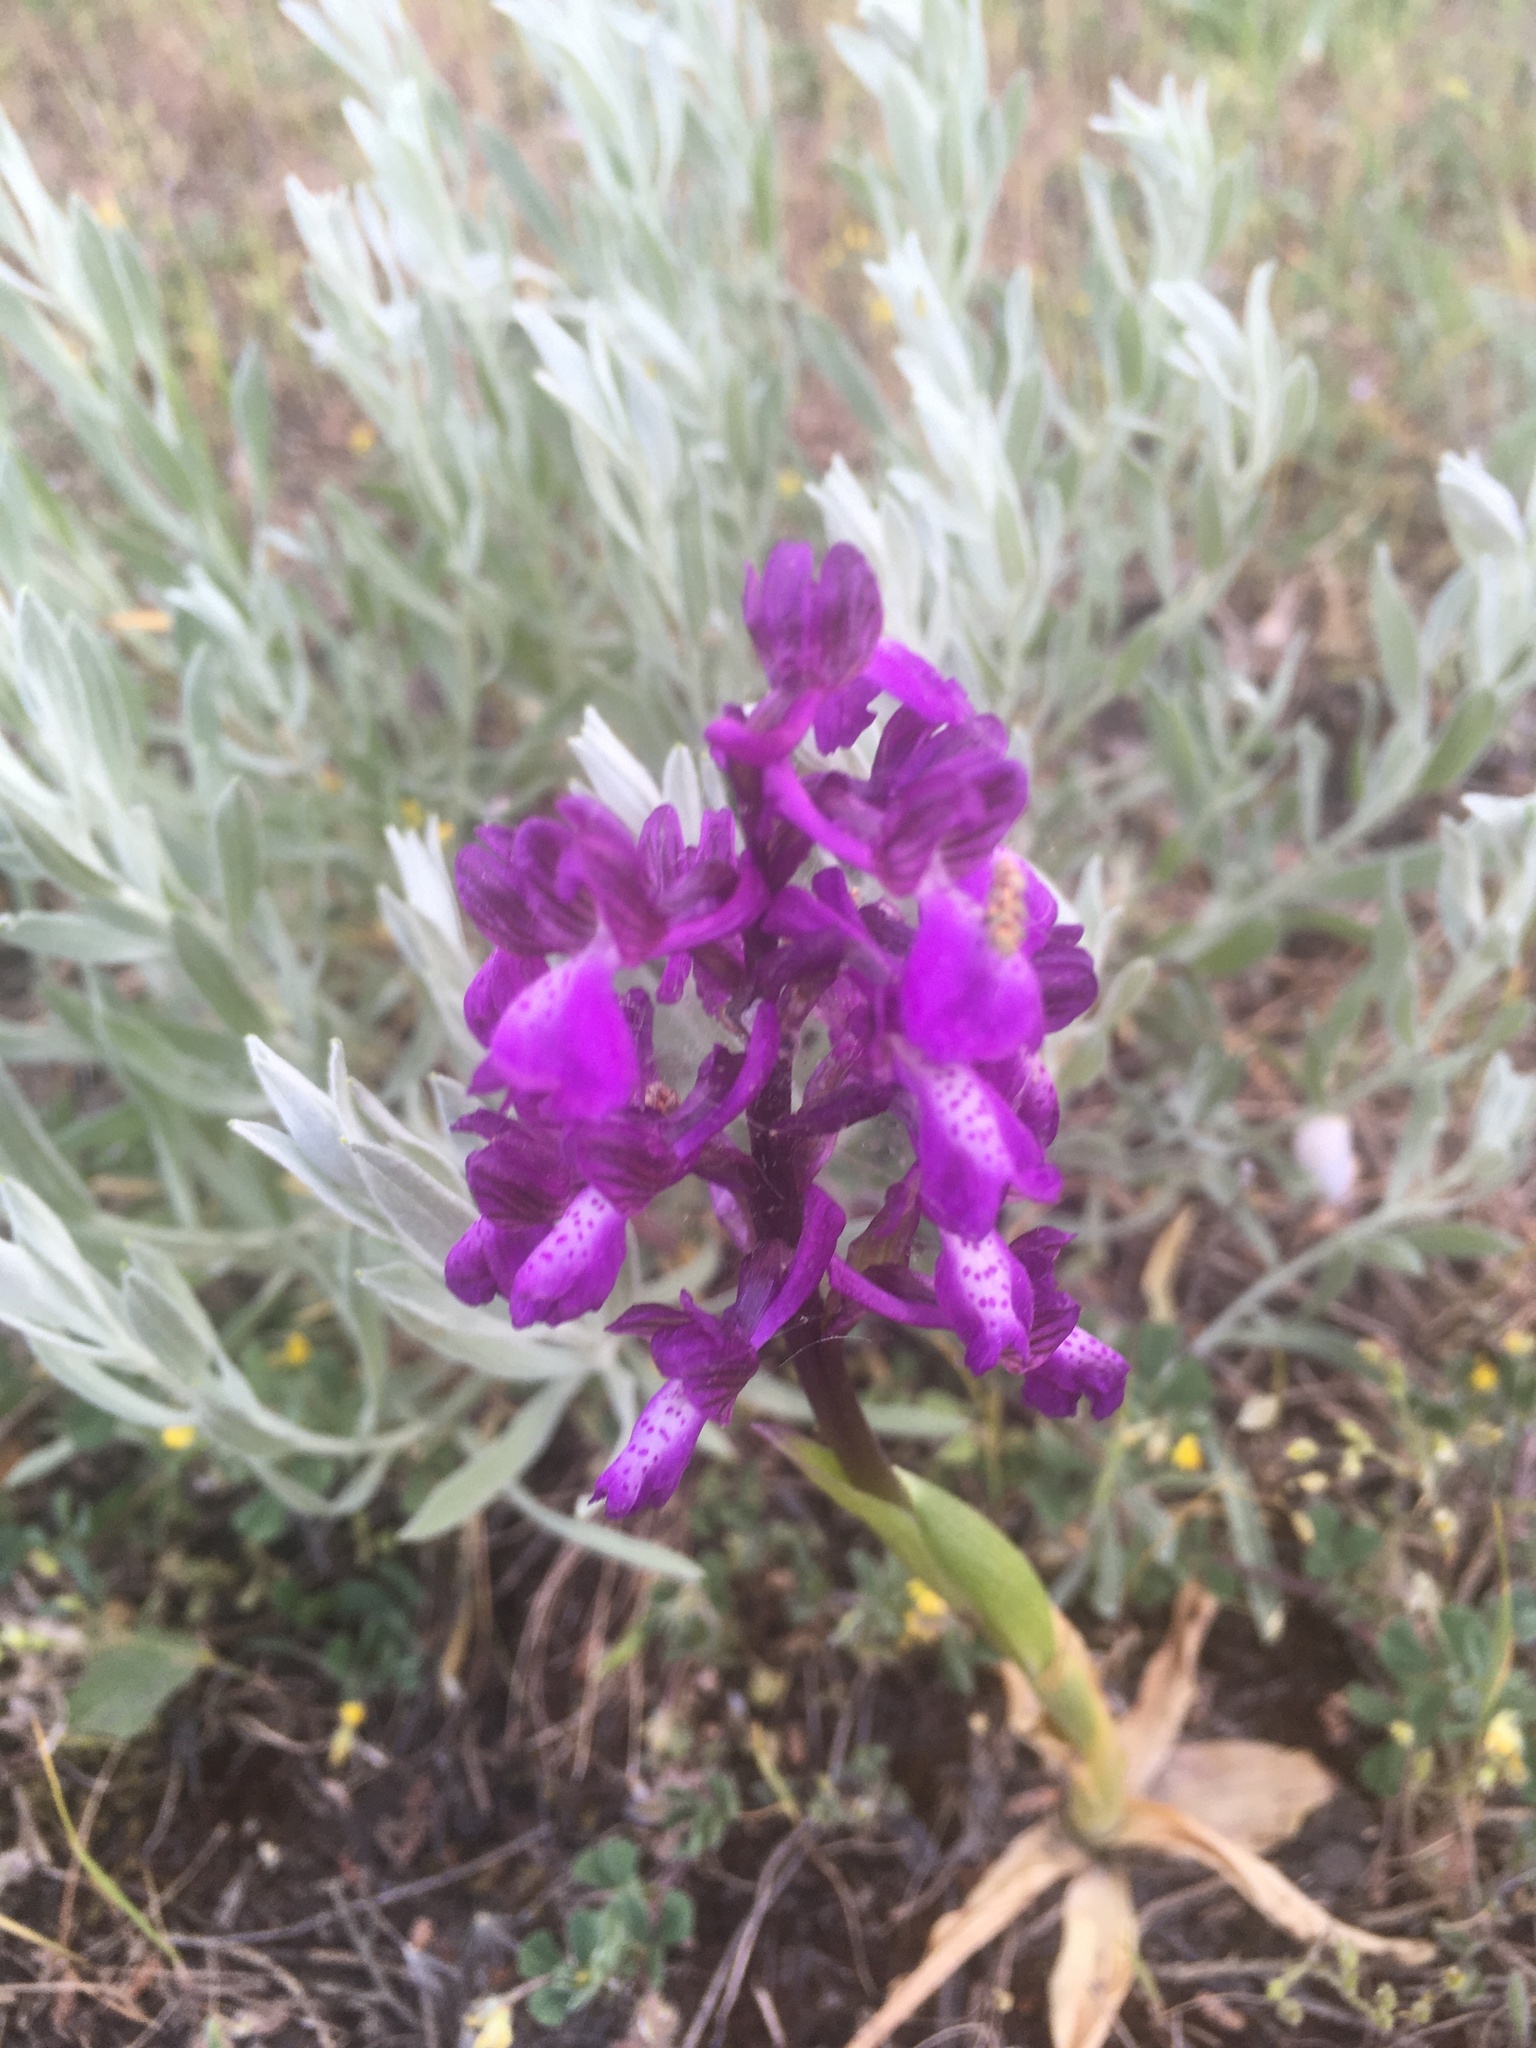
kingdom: Plantae
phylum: Tracheophyta
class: Liliopsida
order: Asparagales
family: Orchidaceae
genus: Anacamptis
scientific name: Anacamptis morio
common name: Green-winged orchid
